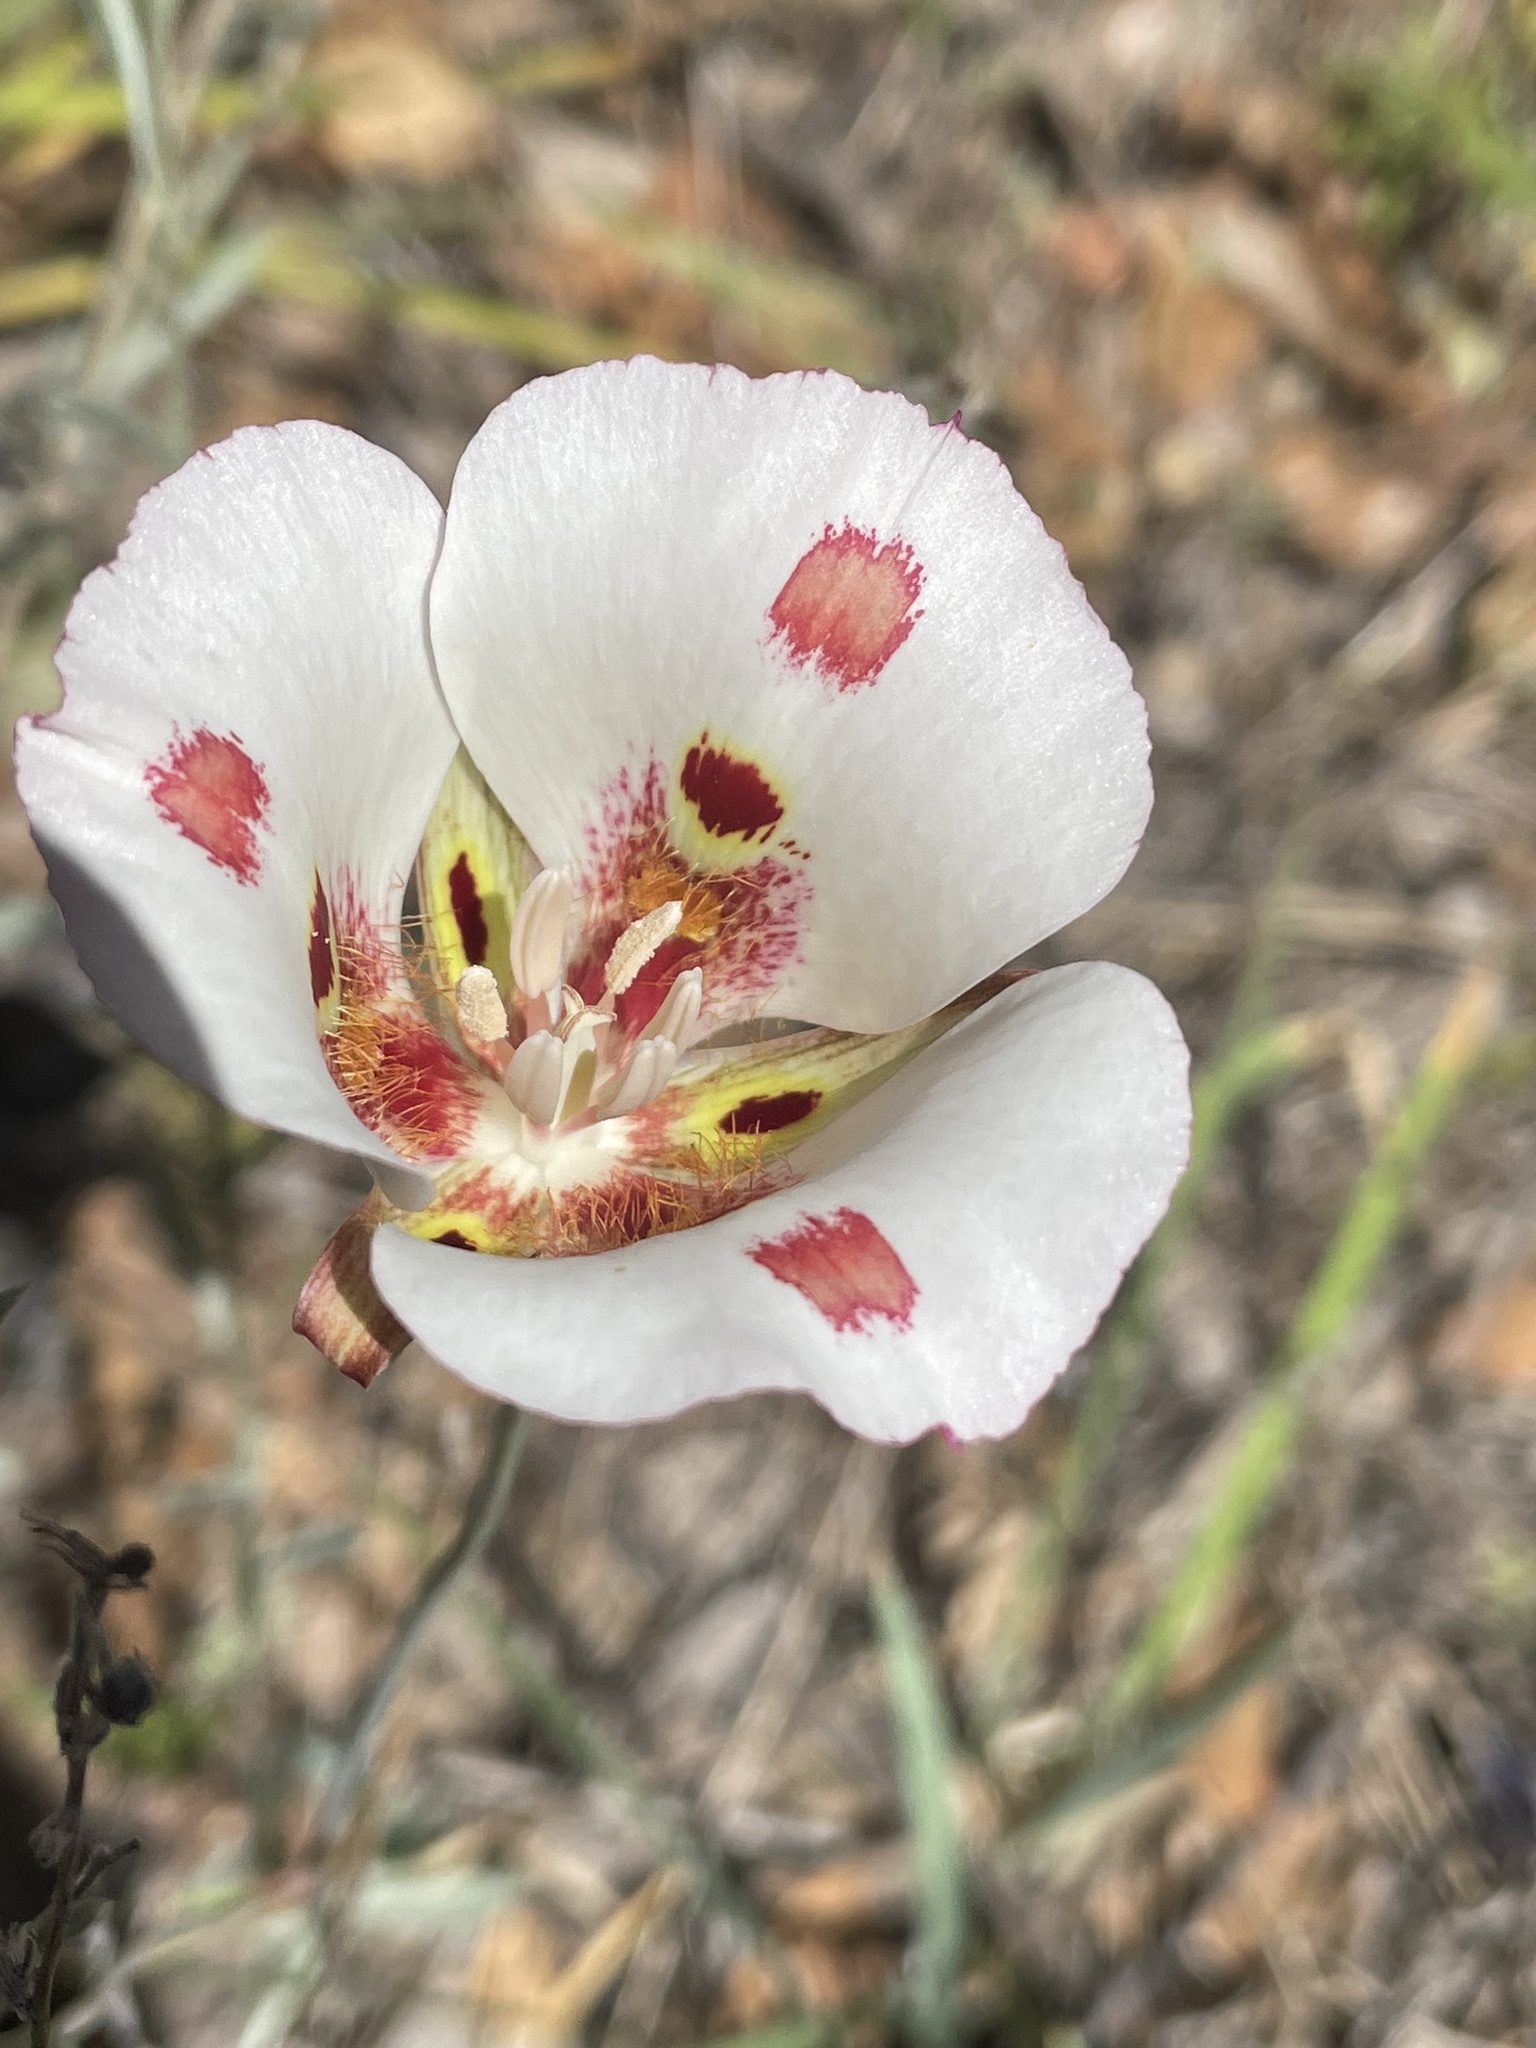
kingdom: Plantae
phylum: Tracheophyta
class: Liliopsida
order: Liliales
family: Liliaceae
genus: Calochortus
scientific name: Calochortus venustus
